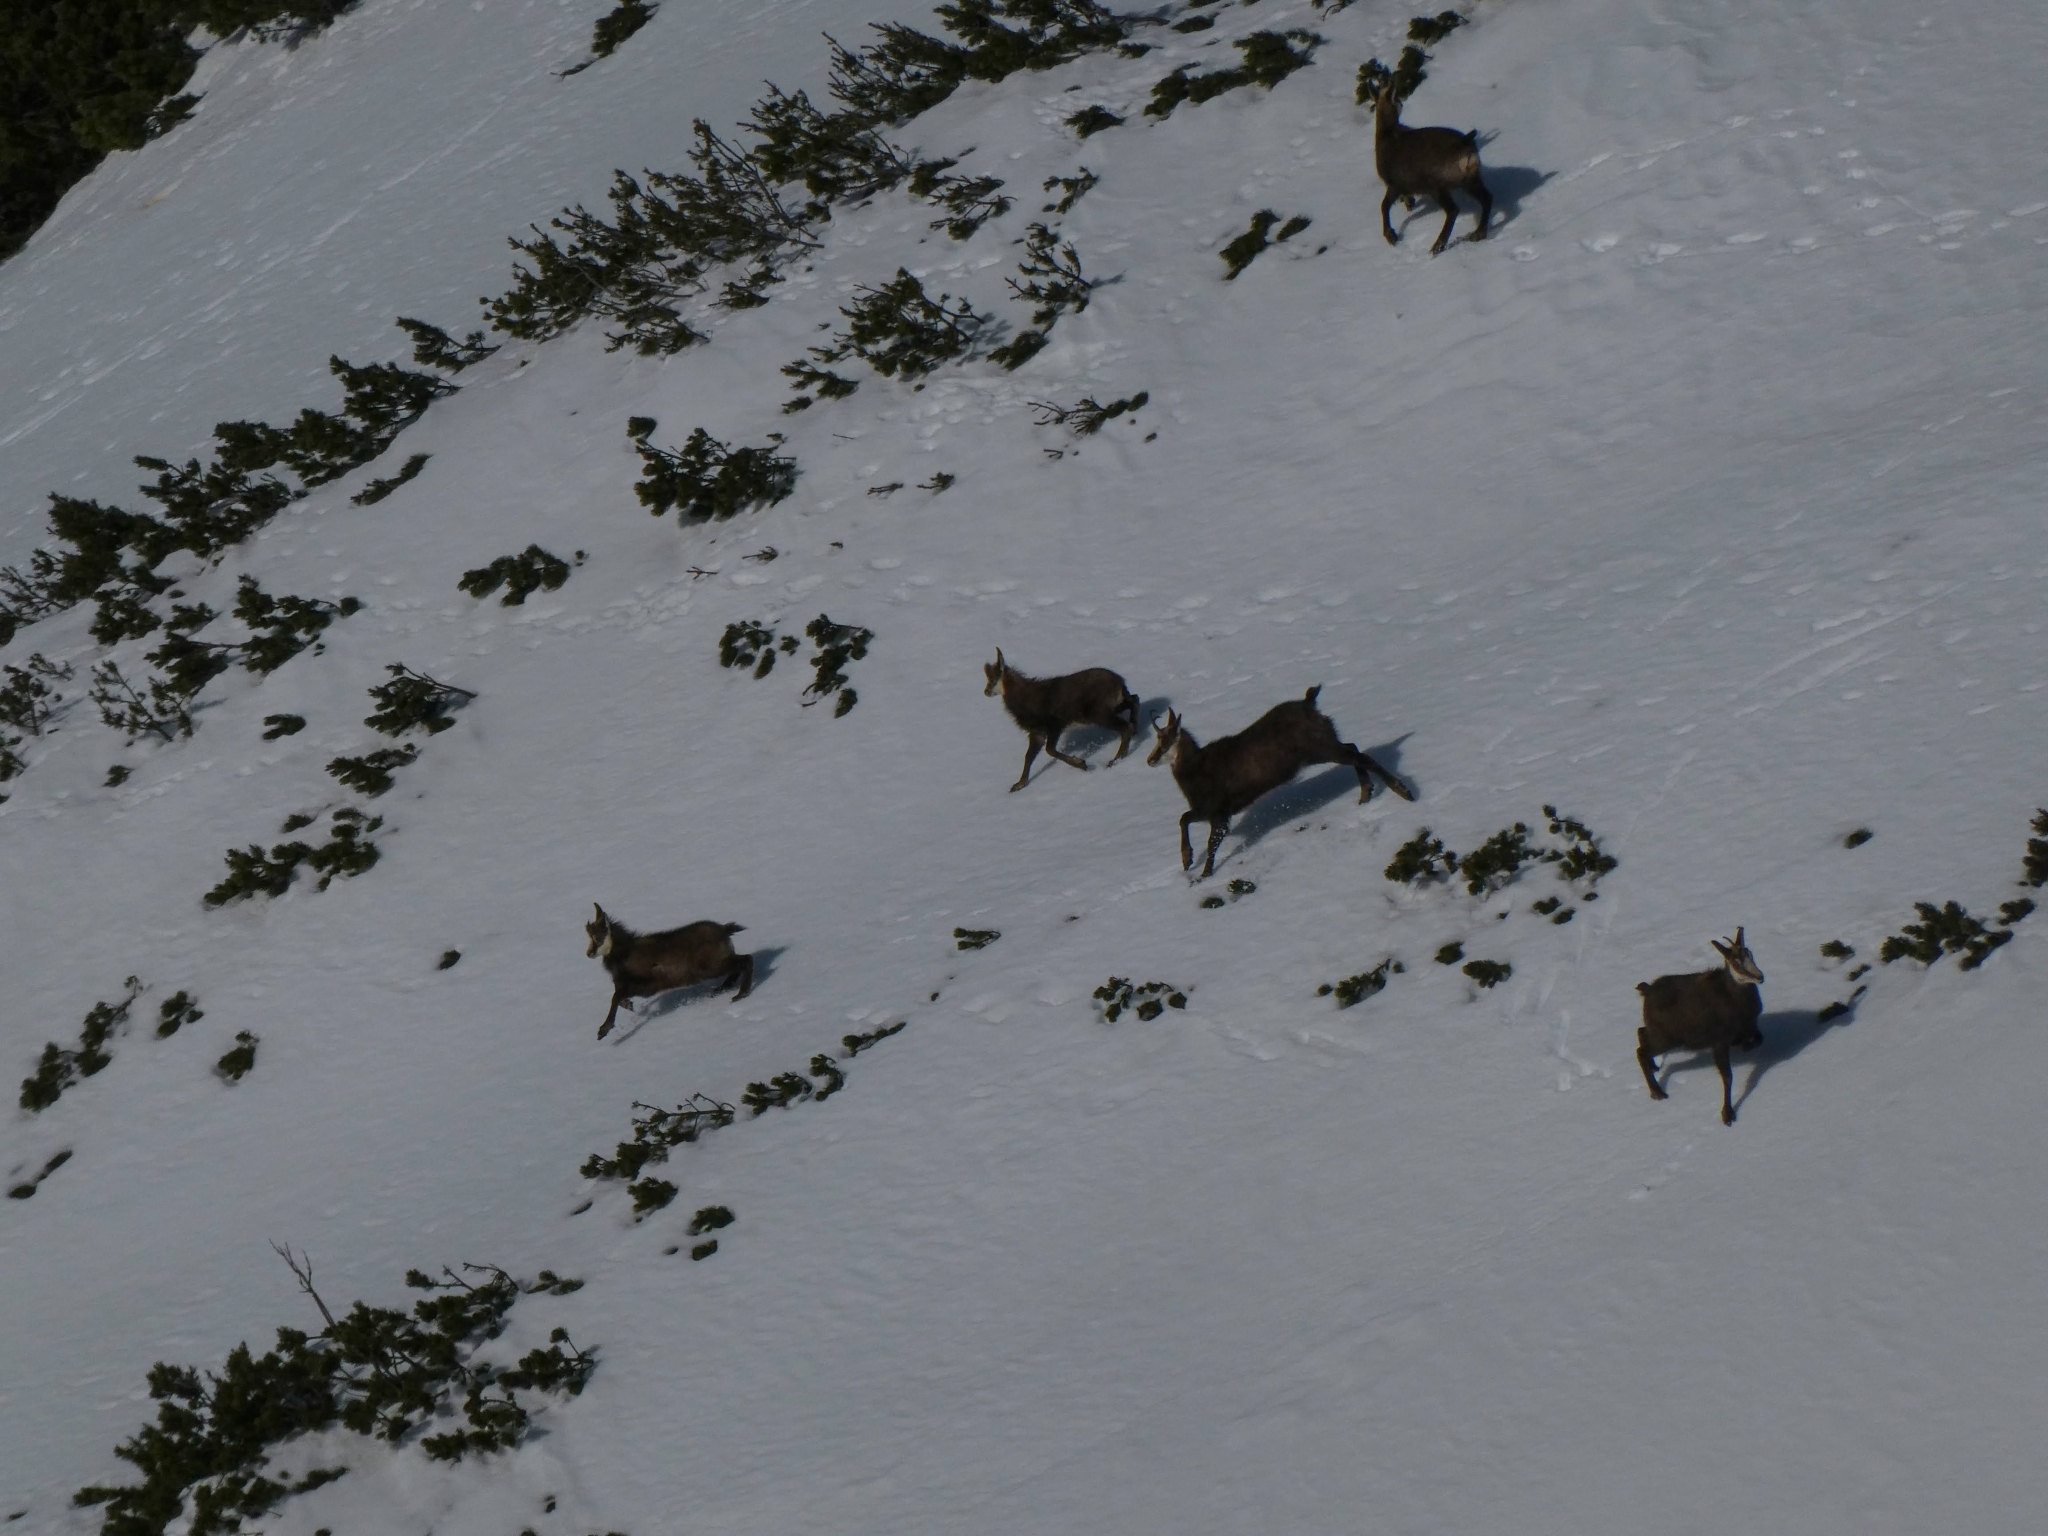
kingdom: Animalia
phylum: Chordata
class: Mammalia
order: Artiodactyla
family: Bovidae
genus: Rupicapra
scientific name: Rupicapra rupicapra
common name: Chamois
